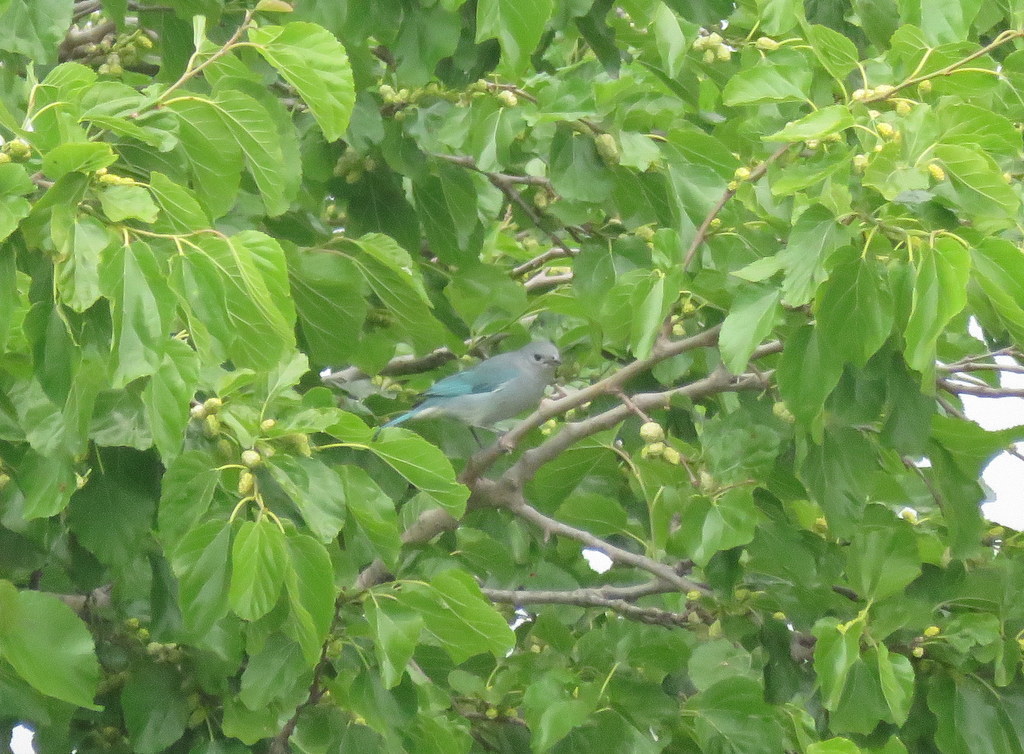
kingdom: Animalia
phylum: Chordata
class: Aves
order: Passeriformes
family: Thraupidae
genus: Thraupis
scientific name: Thraupis sayaca
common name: Sayaca tanager
